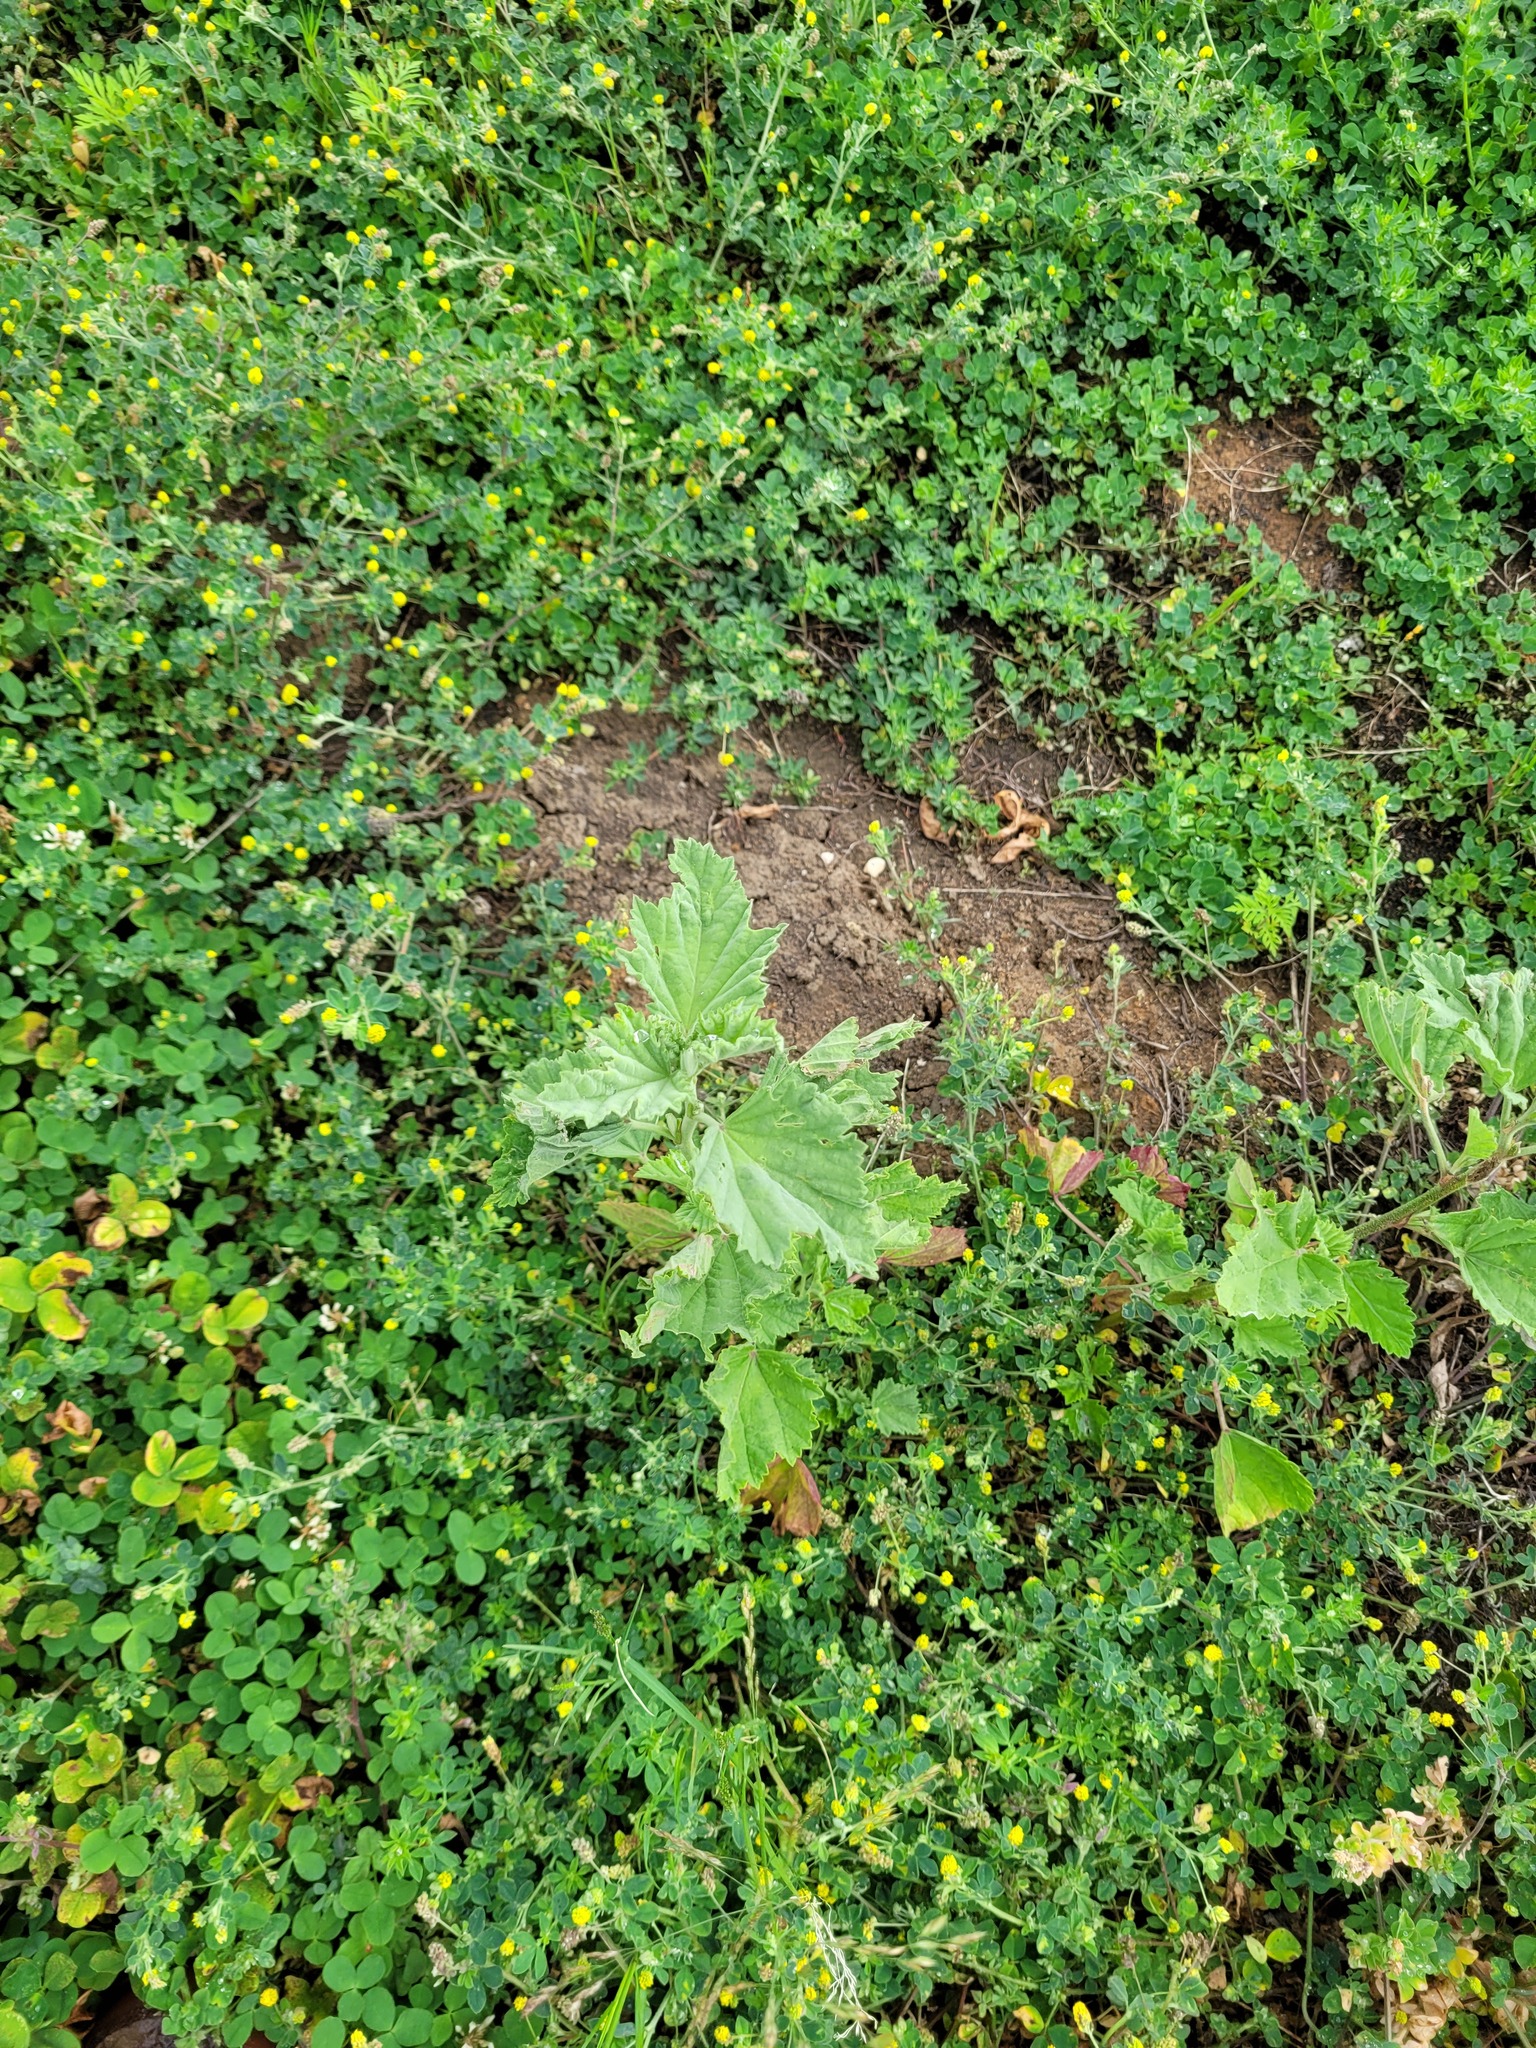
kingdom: Plantae
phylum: Tracheophyta
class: Magnoliopsida
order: Malvales
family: Malvaceae
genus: Althaea
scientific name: Althaea officinalis
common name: Marsh-mallow
